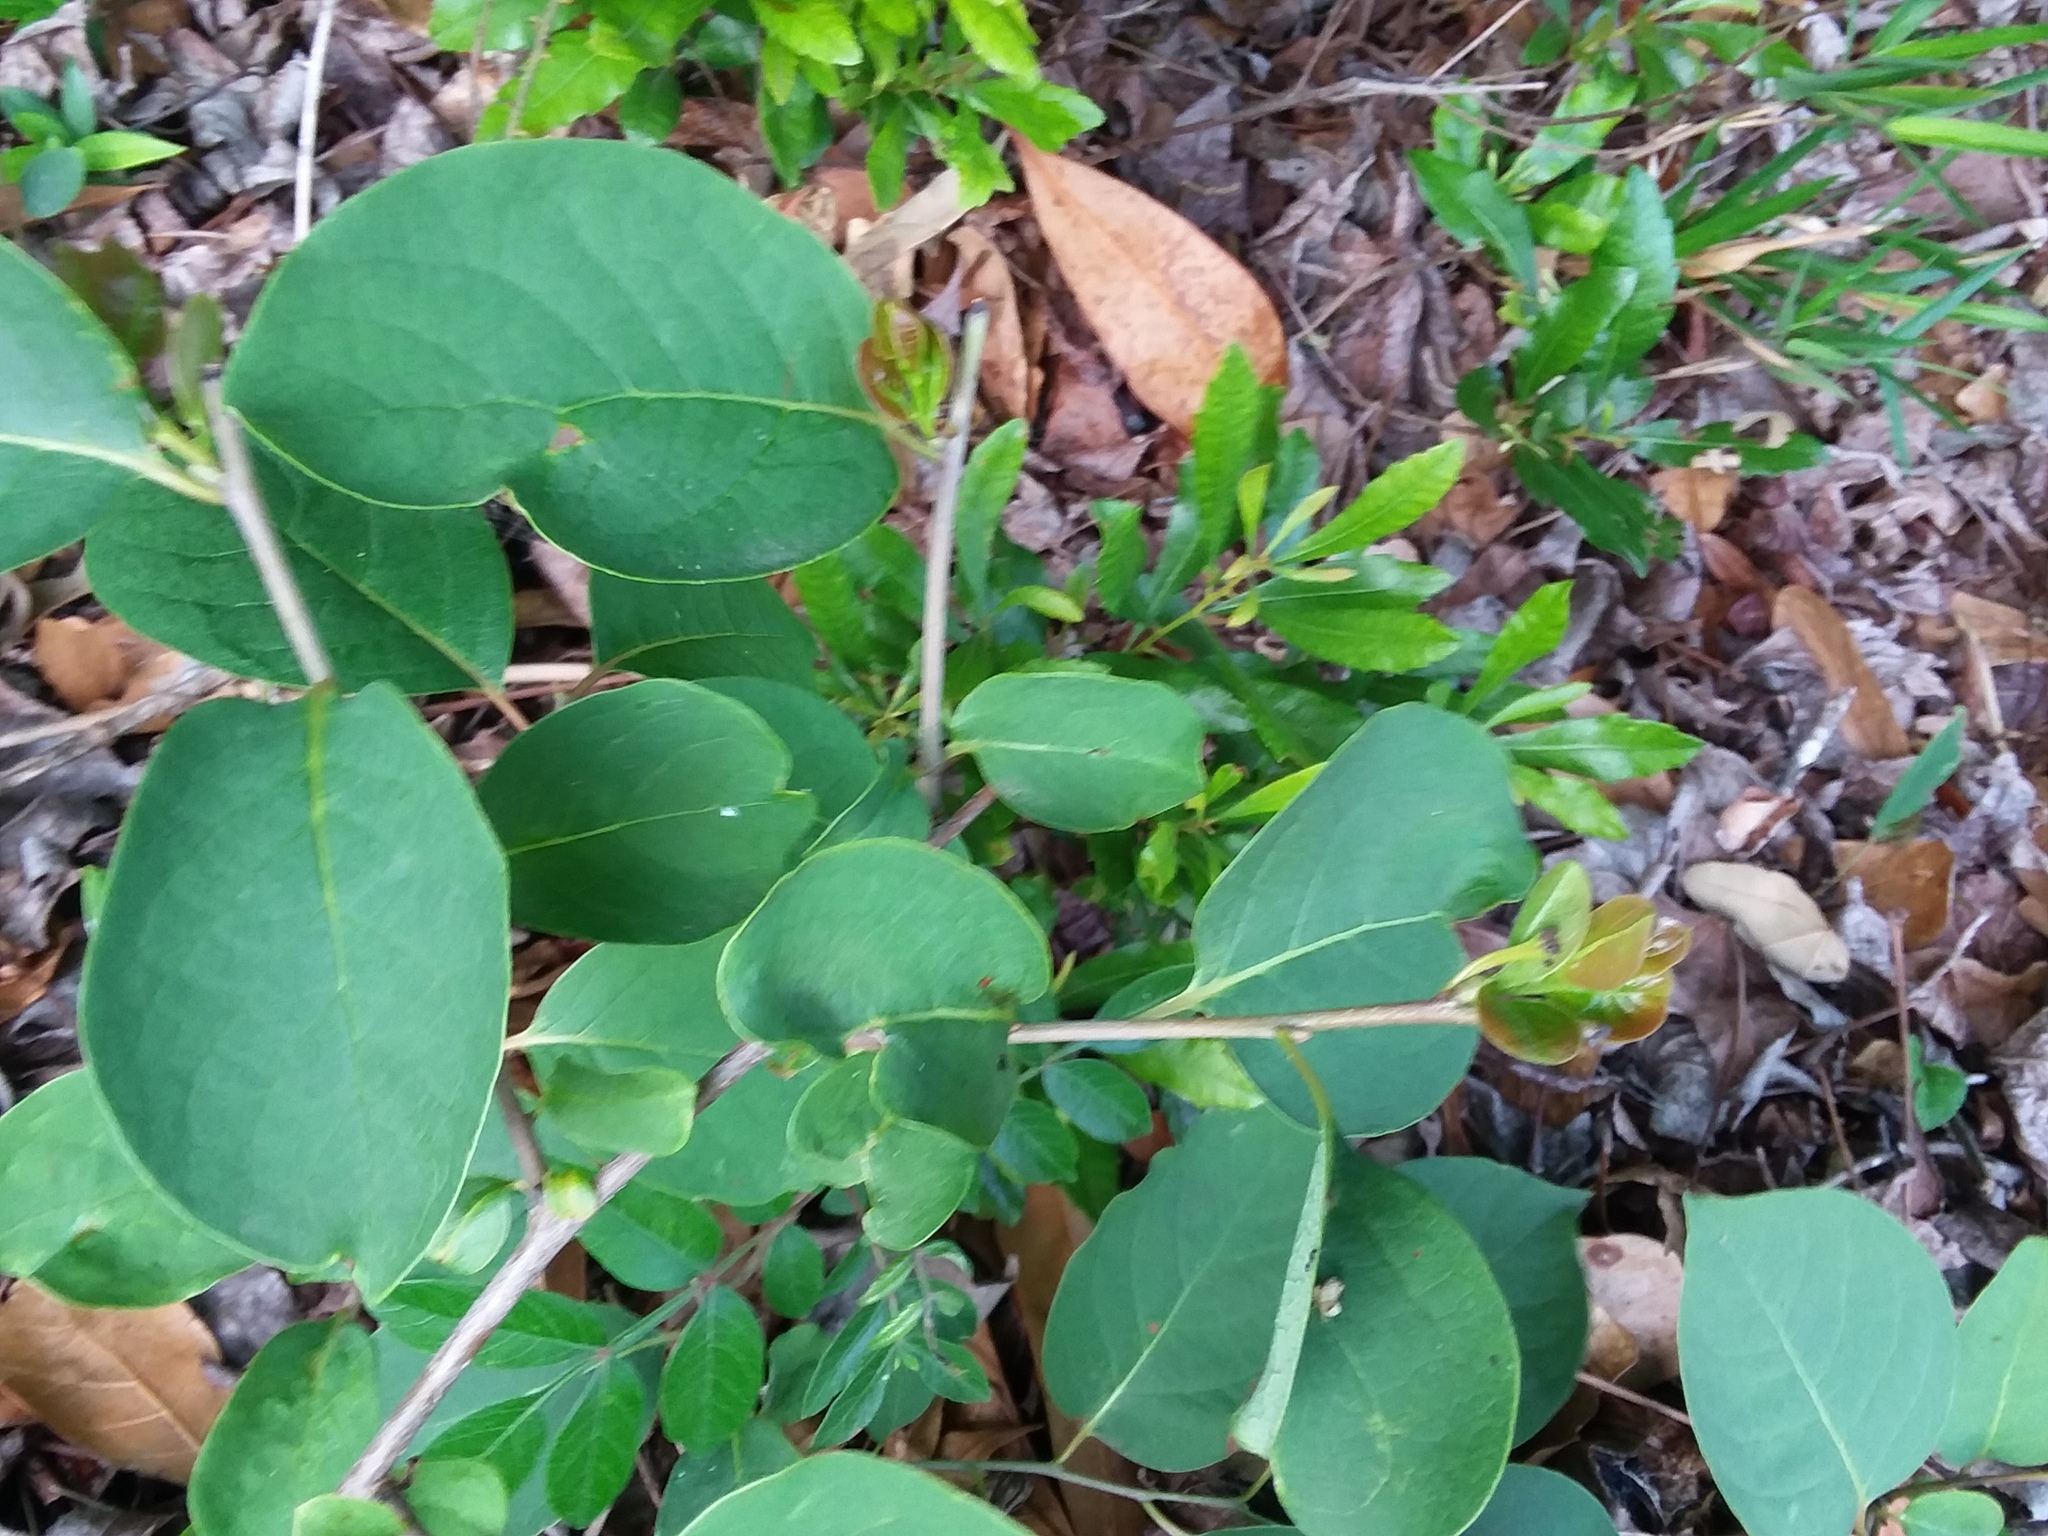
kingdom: Plantae
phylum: Tracheophyta
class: Magnoliopsida
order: Ericales
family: Ebenaceae
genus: Diospyros
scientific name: Diospyros virginiana
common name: Persimmon
